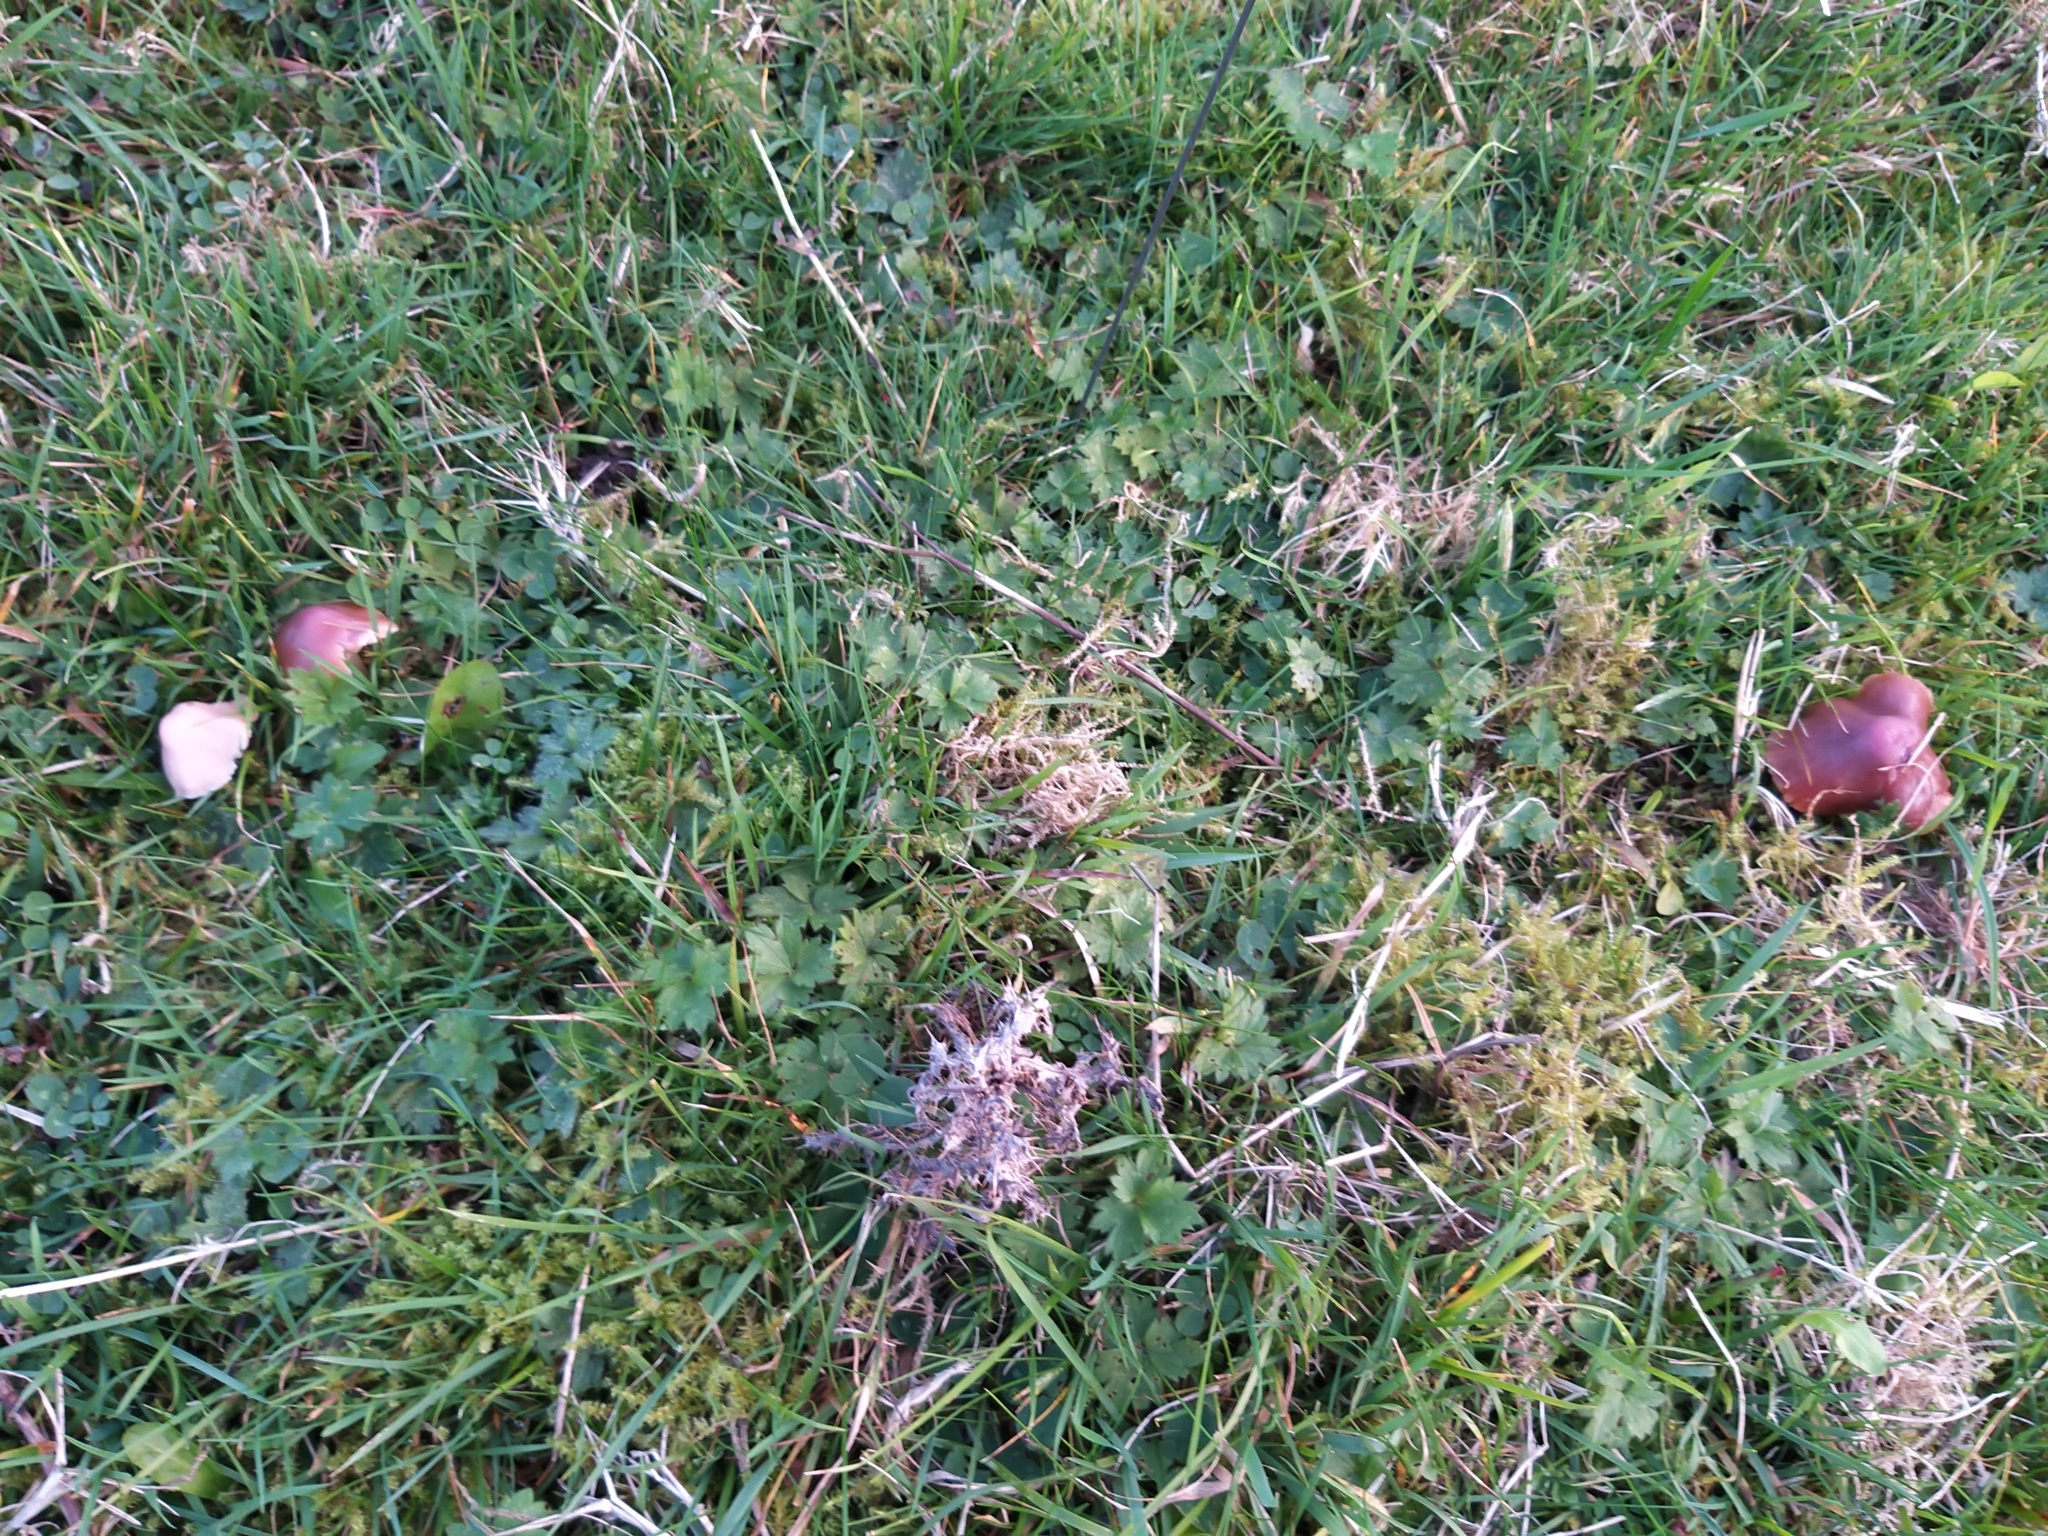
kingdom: Fungi
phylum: Basidiomycota
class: Agaricomycetes
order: Agaricales
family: Hygrophoraceae
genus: Gliophorus
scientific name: Gliophorus reginae
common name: Jubilee waxcap
